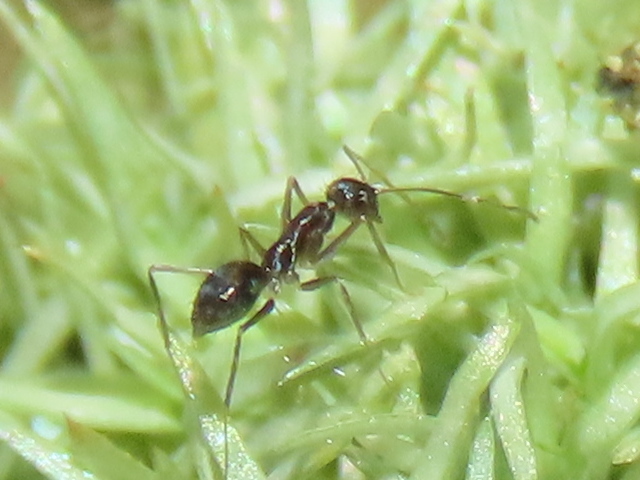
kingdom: Animalia
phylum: Arthropoda
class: Insecta
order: Hymenoptera
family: Formicidae
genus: Paratrechina
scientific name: Paratrechina longicornis
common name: Longhorned crazy ant
